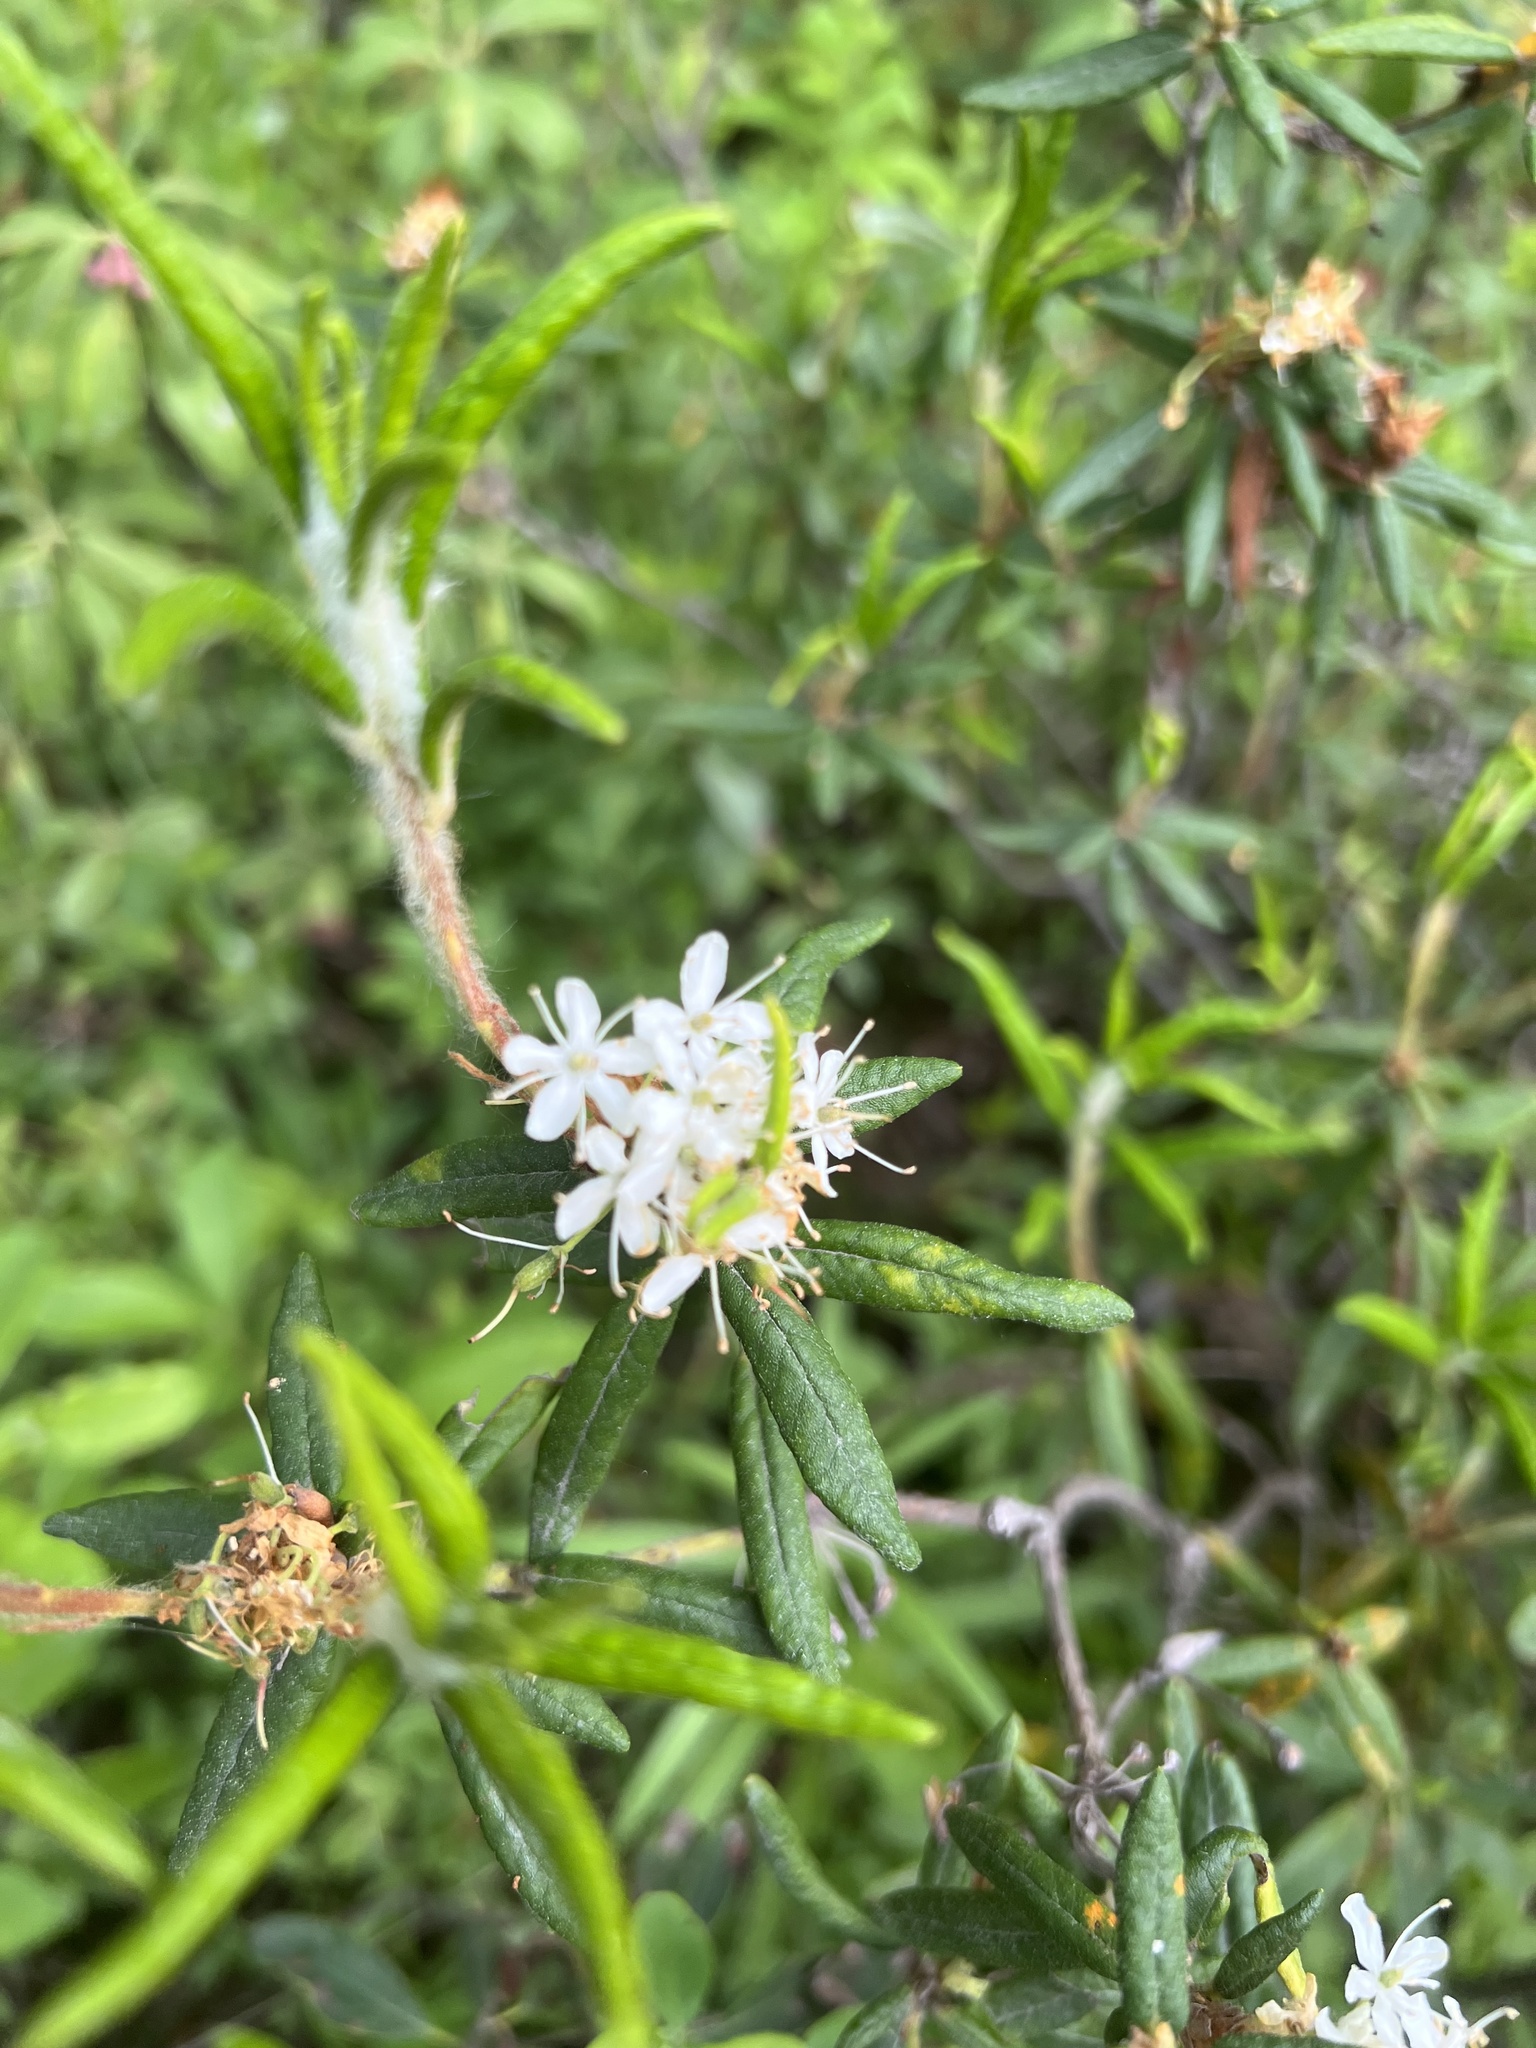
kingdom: Plantae
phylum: Tracheophyta
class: Magnoliopsida
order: Ericales
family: Ericaceae
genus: Rhododendron
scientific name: Rhododendron groenlandicum
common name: Bog labrador tea
